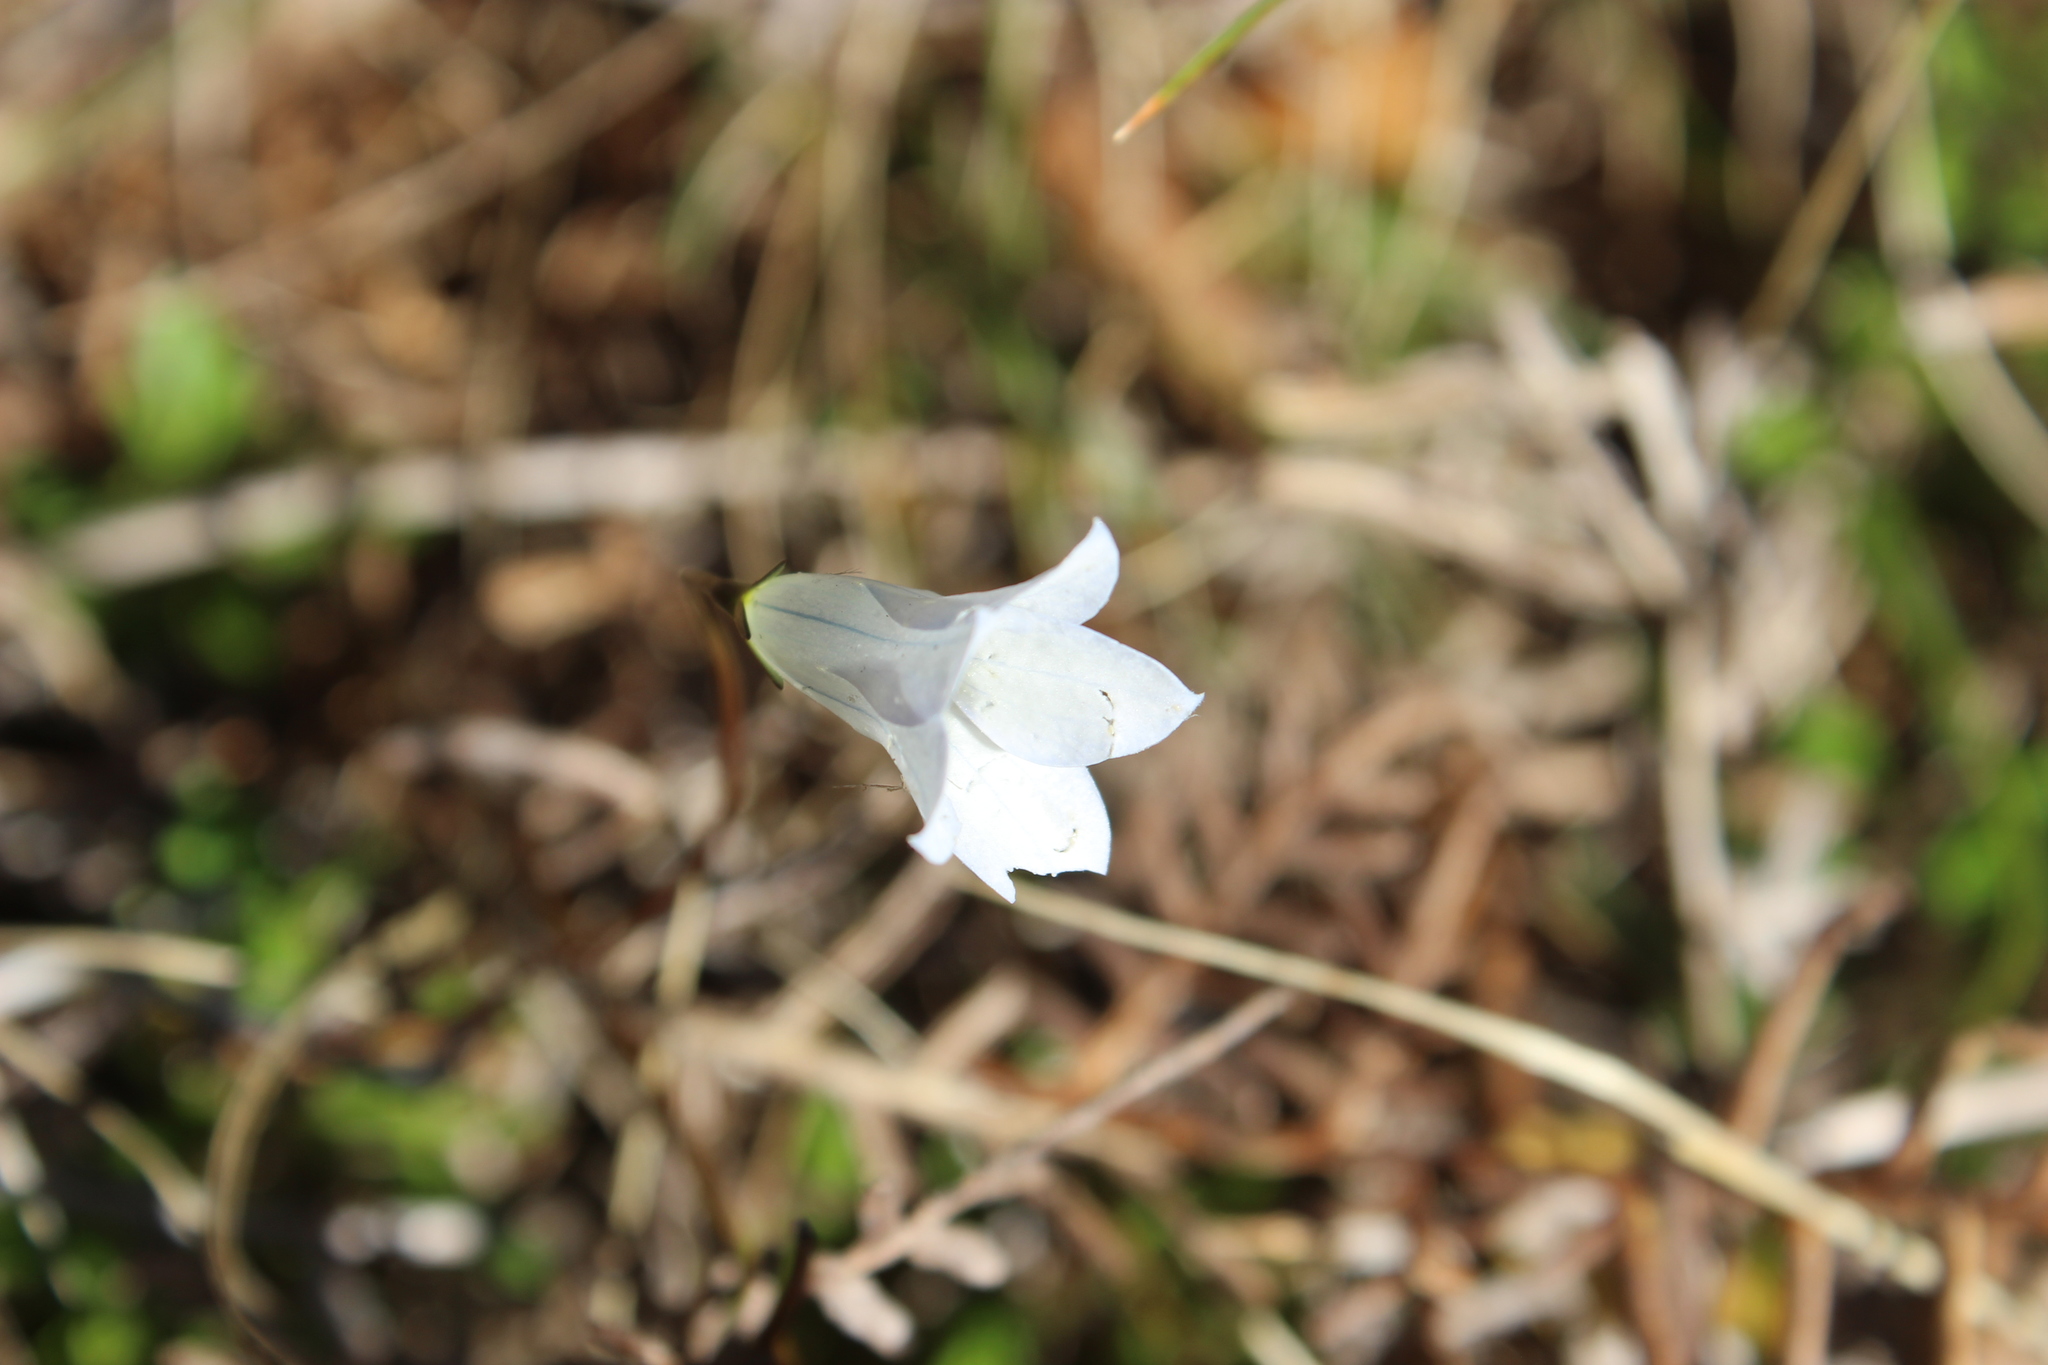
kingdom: Plantae
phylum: Tracheophyta
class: Magnoliopsida
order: Asterales
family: Campanulaceae
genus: Wahlenbergia
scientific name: Wahlenbergia albomarginata
